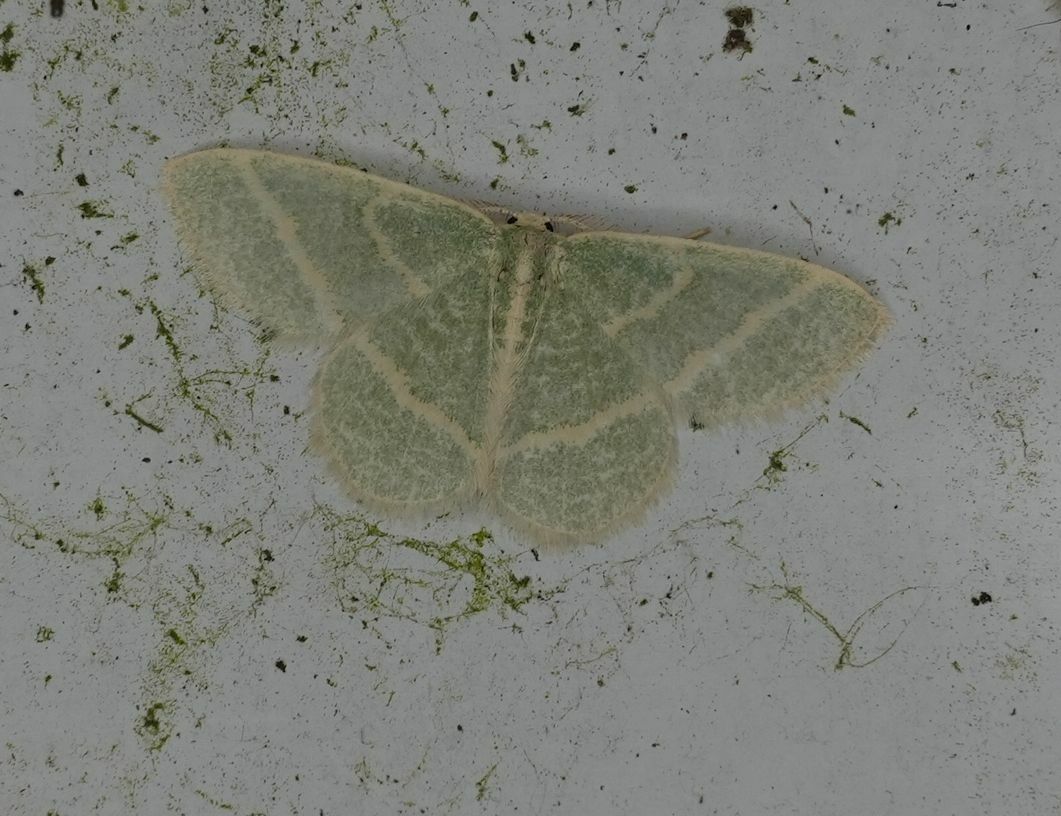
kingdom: Animalia
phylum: Arthropoda
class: Insecta
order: Lepidoptera
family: Geometridae
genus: Chlorochlamys
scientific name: Chlorochlamys chloroleucaria
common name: Blackberry looper
